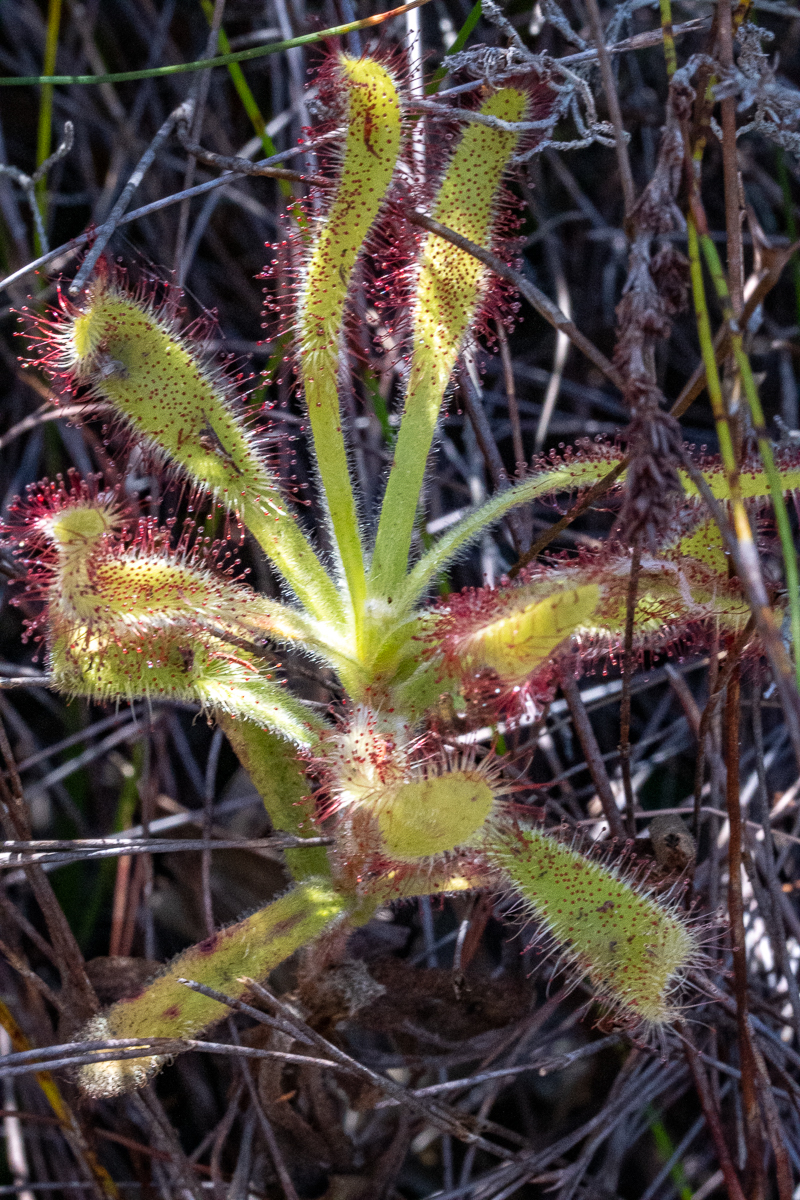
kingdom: Plantae
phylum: Tracheophyta
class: Magnoliopsida
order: Caryophyllales
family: Droseraceae
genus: Drosera
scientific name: Drosera hilaris
